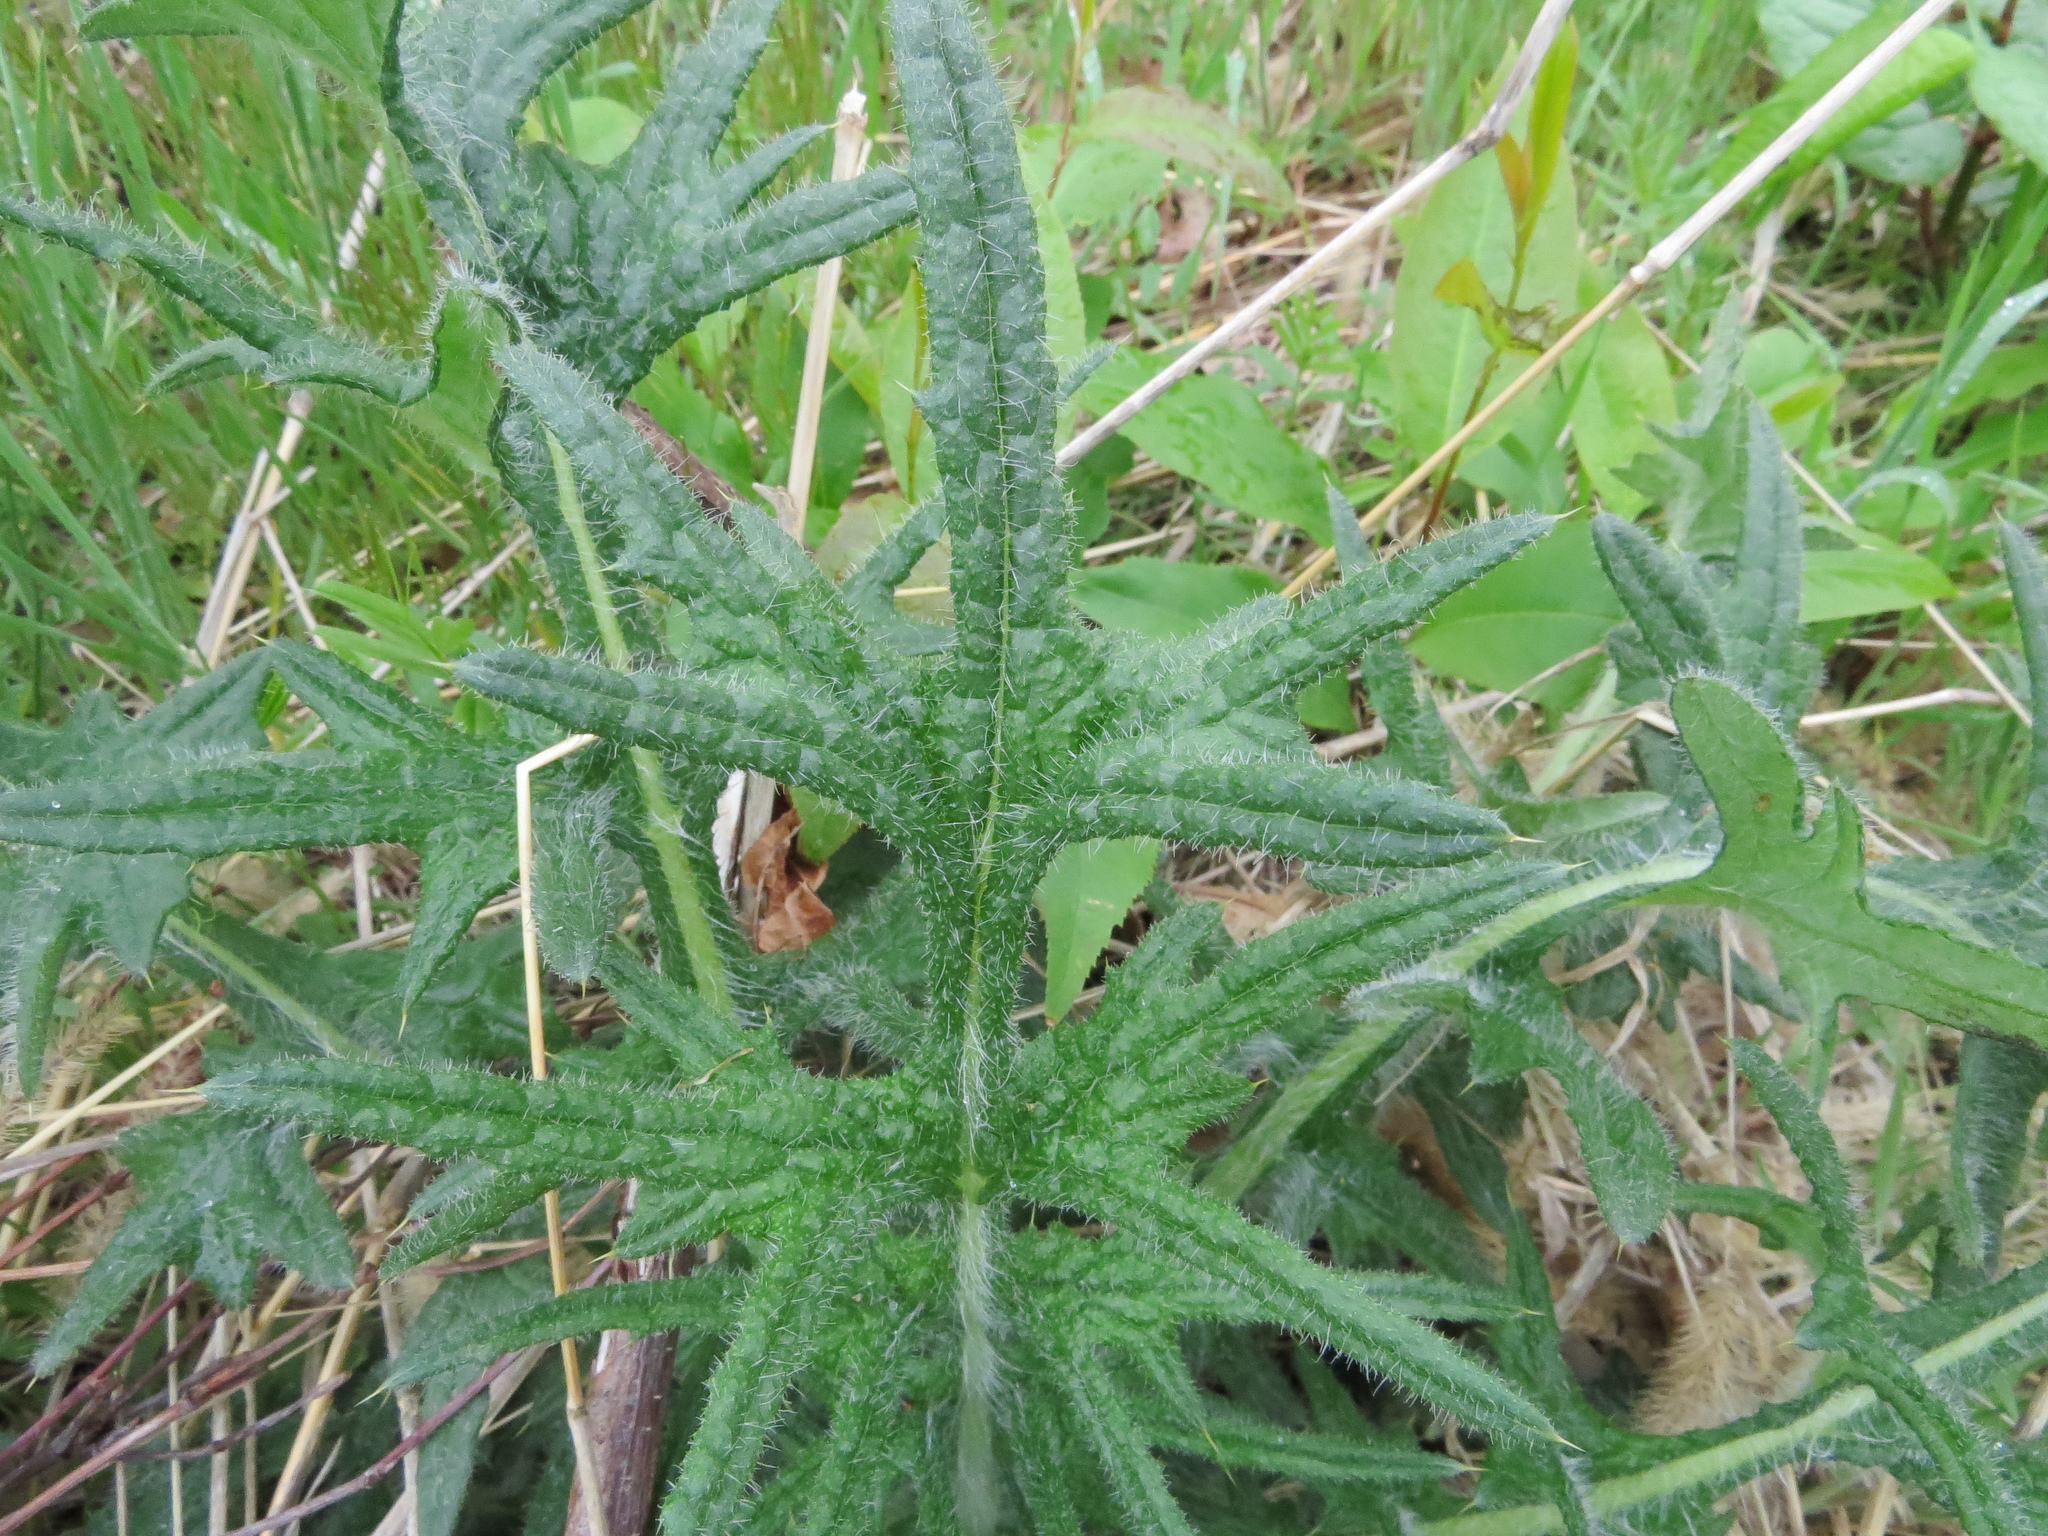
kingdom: Plantae
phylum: Tracheophyta
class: Magnoliopsida
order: Asterales
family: Asteraceae
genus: Cirsium
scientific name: Cirsium vulgare
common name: Bull thistle
